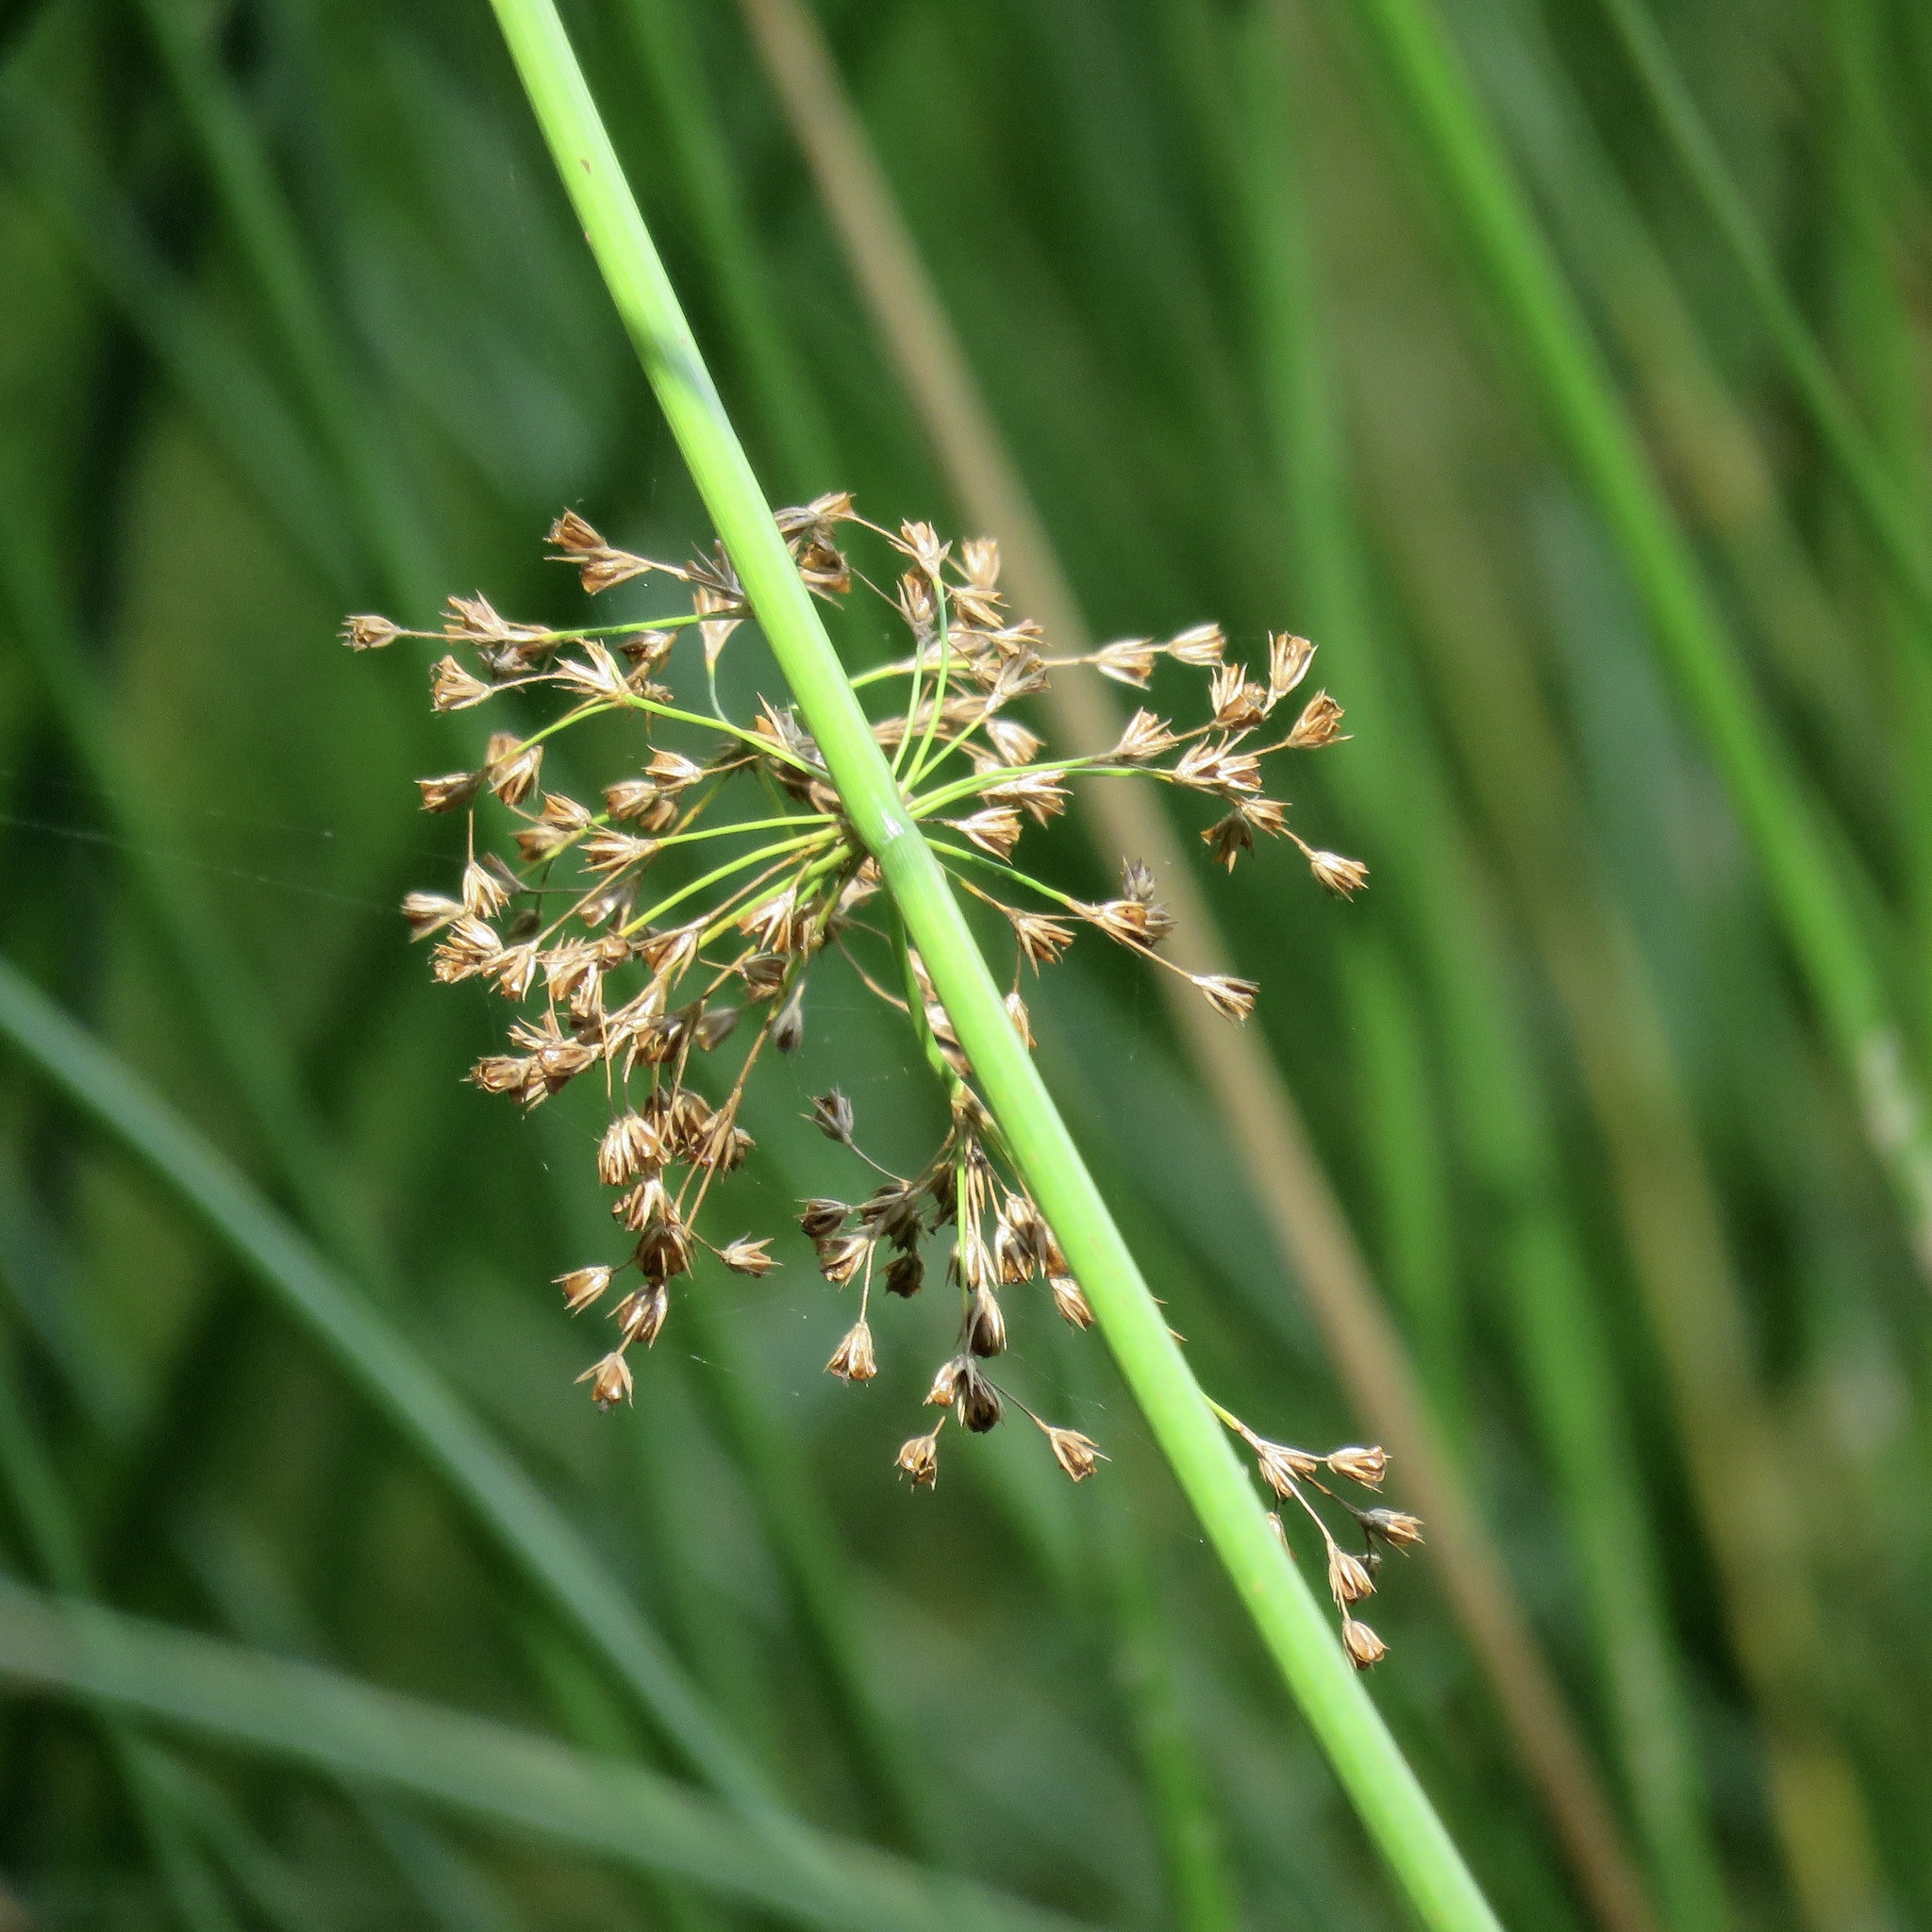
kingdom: Plantae
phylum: Tracheophyta
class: Liliopsida
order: Poales
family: Juncaceae
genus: Juncus
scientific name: Juncus effusus
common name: Soft rush
